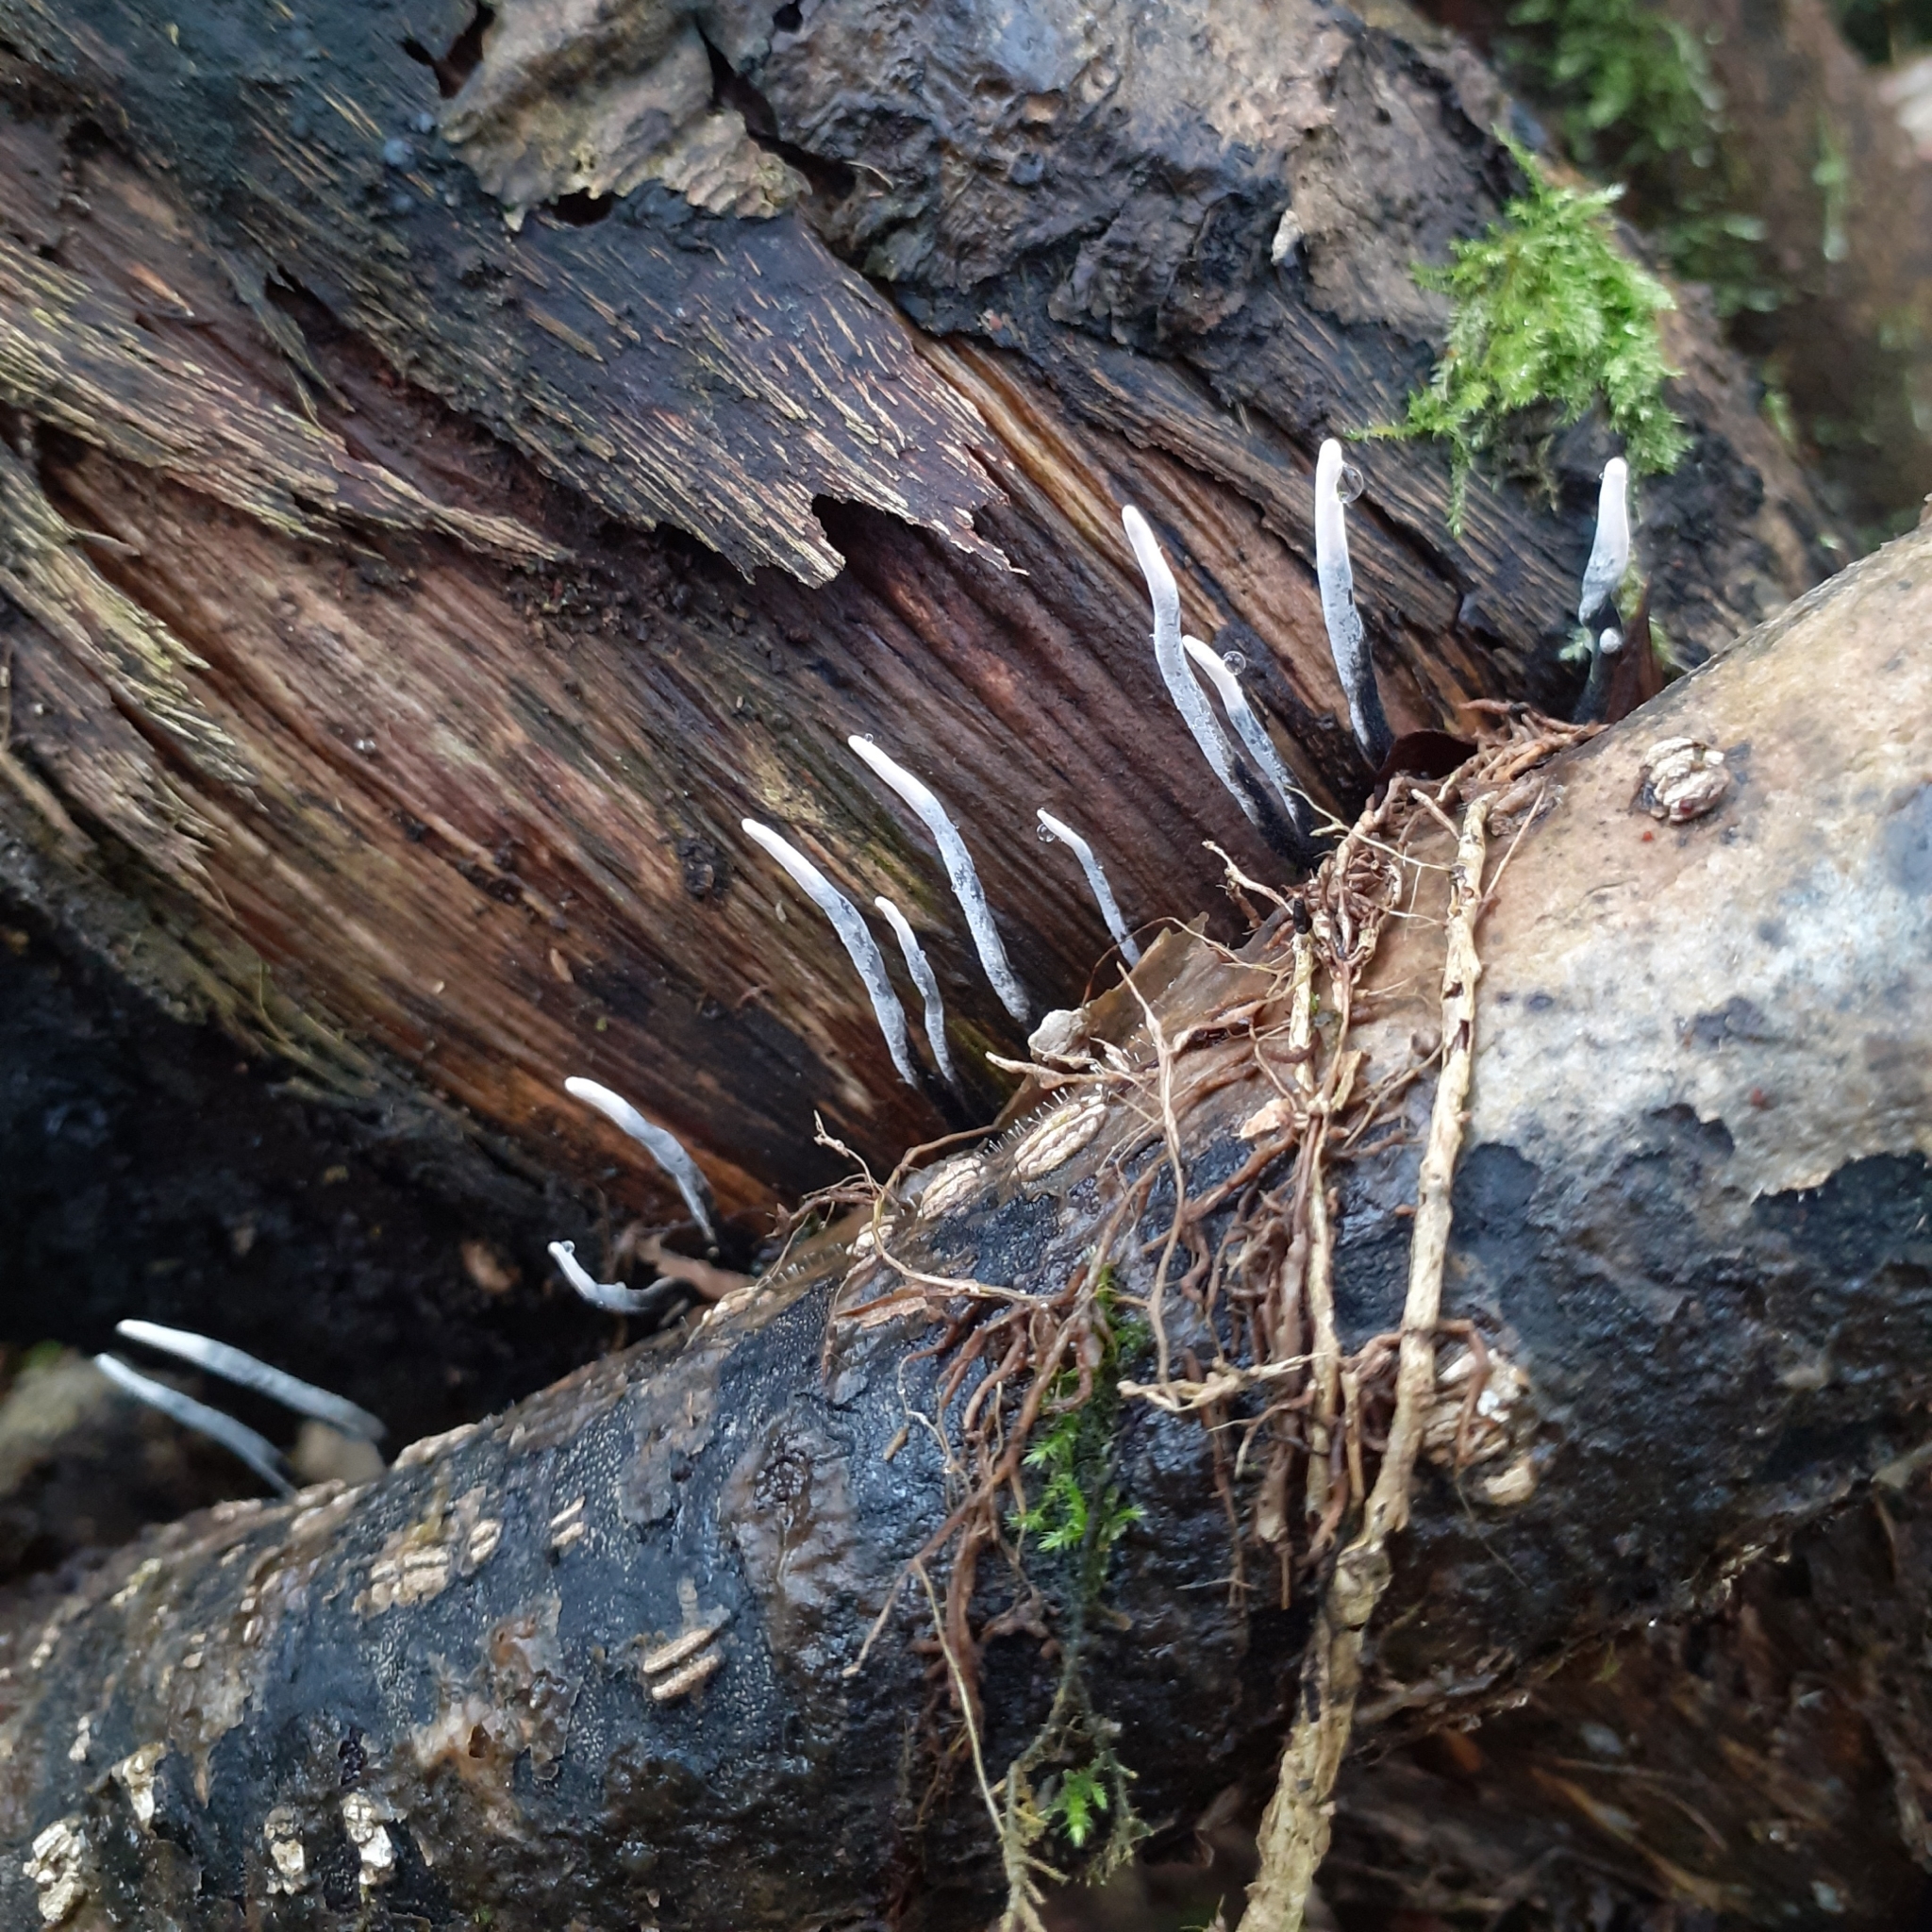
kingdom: Fungi
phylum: Ascomycota
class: Sordariomycetes
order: Xylariales
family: Xylariaceae
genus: Xylaria
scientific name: Xylaria hypoxylon
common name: Candle-snuff fungus
